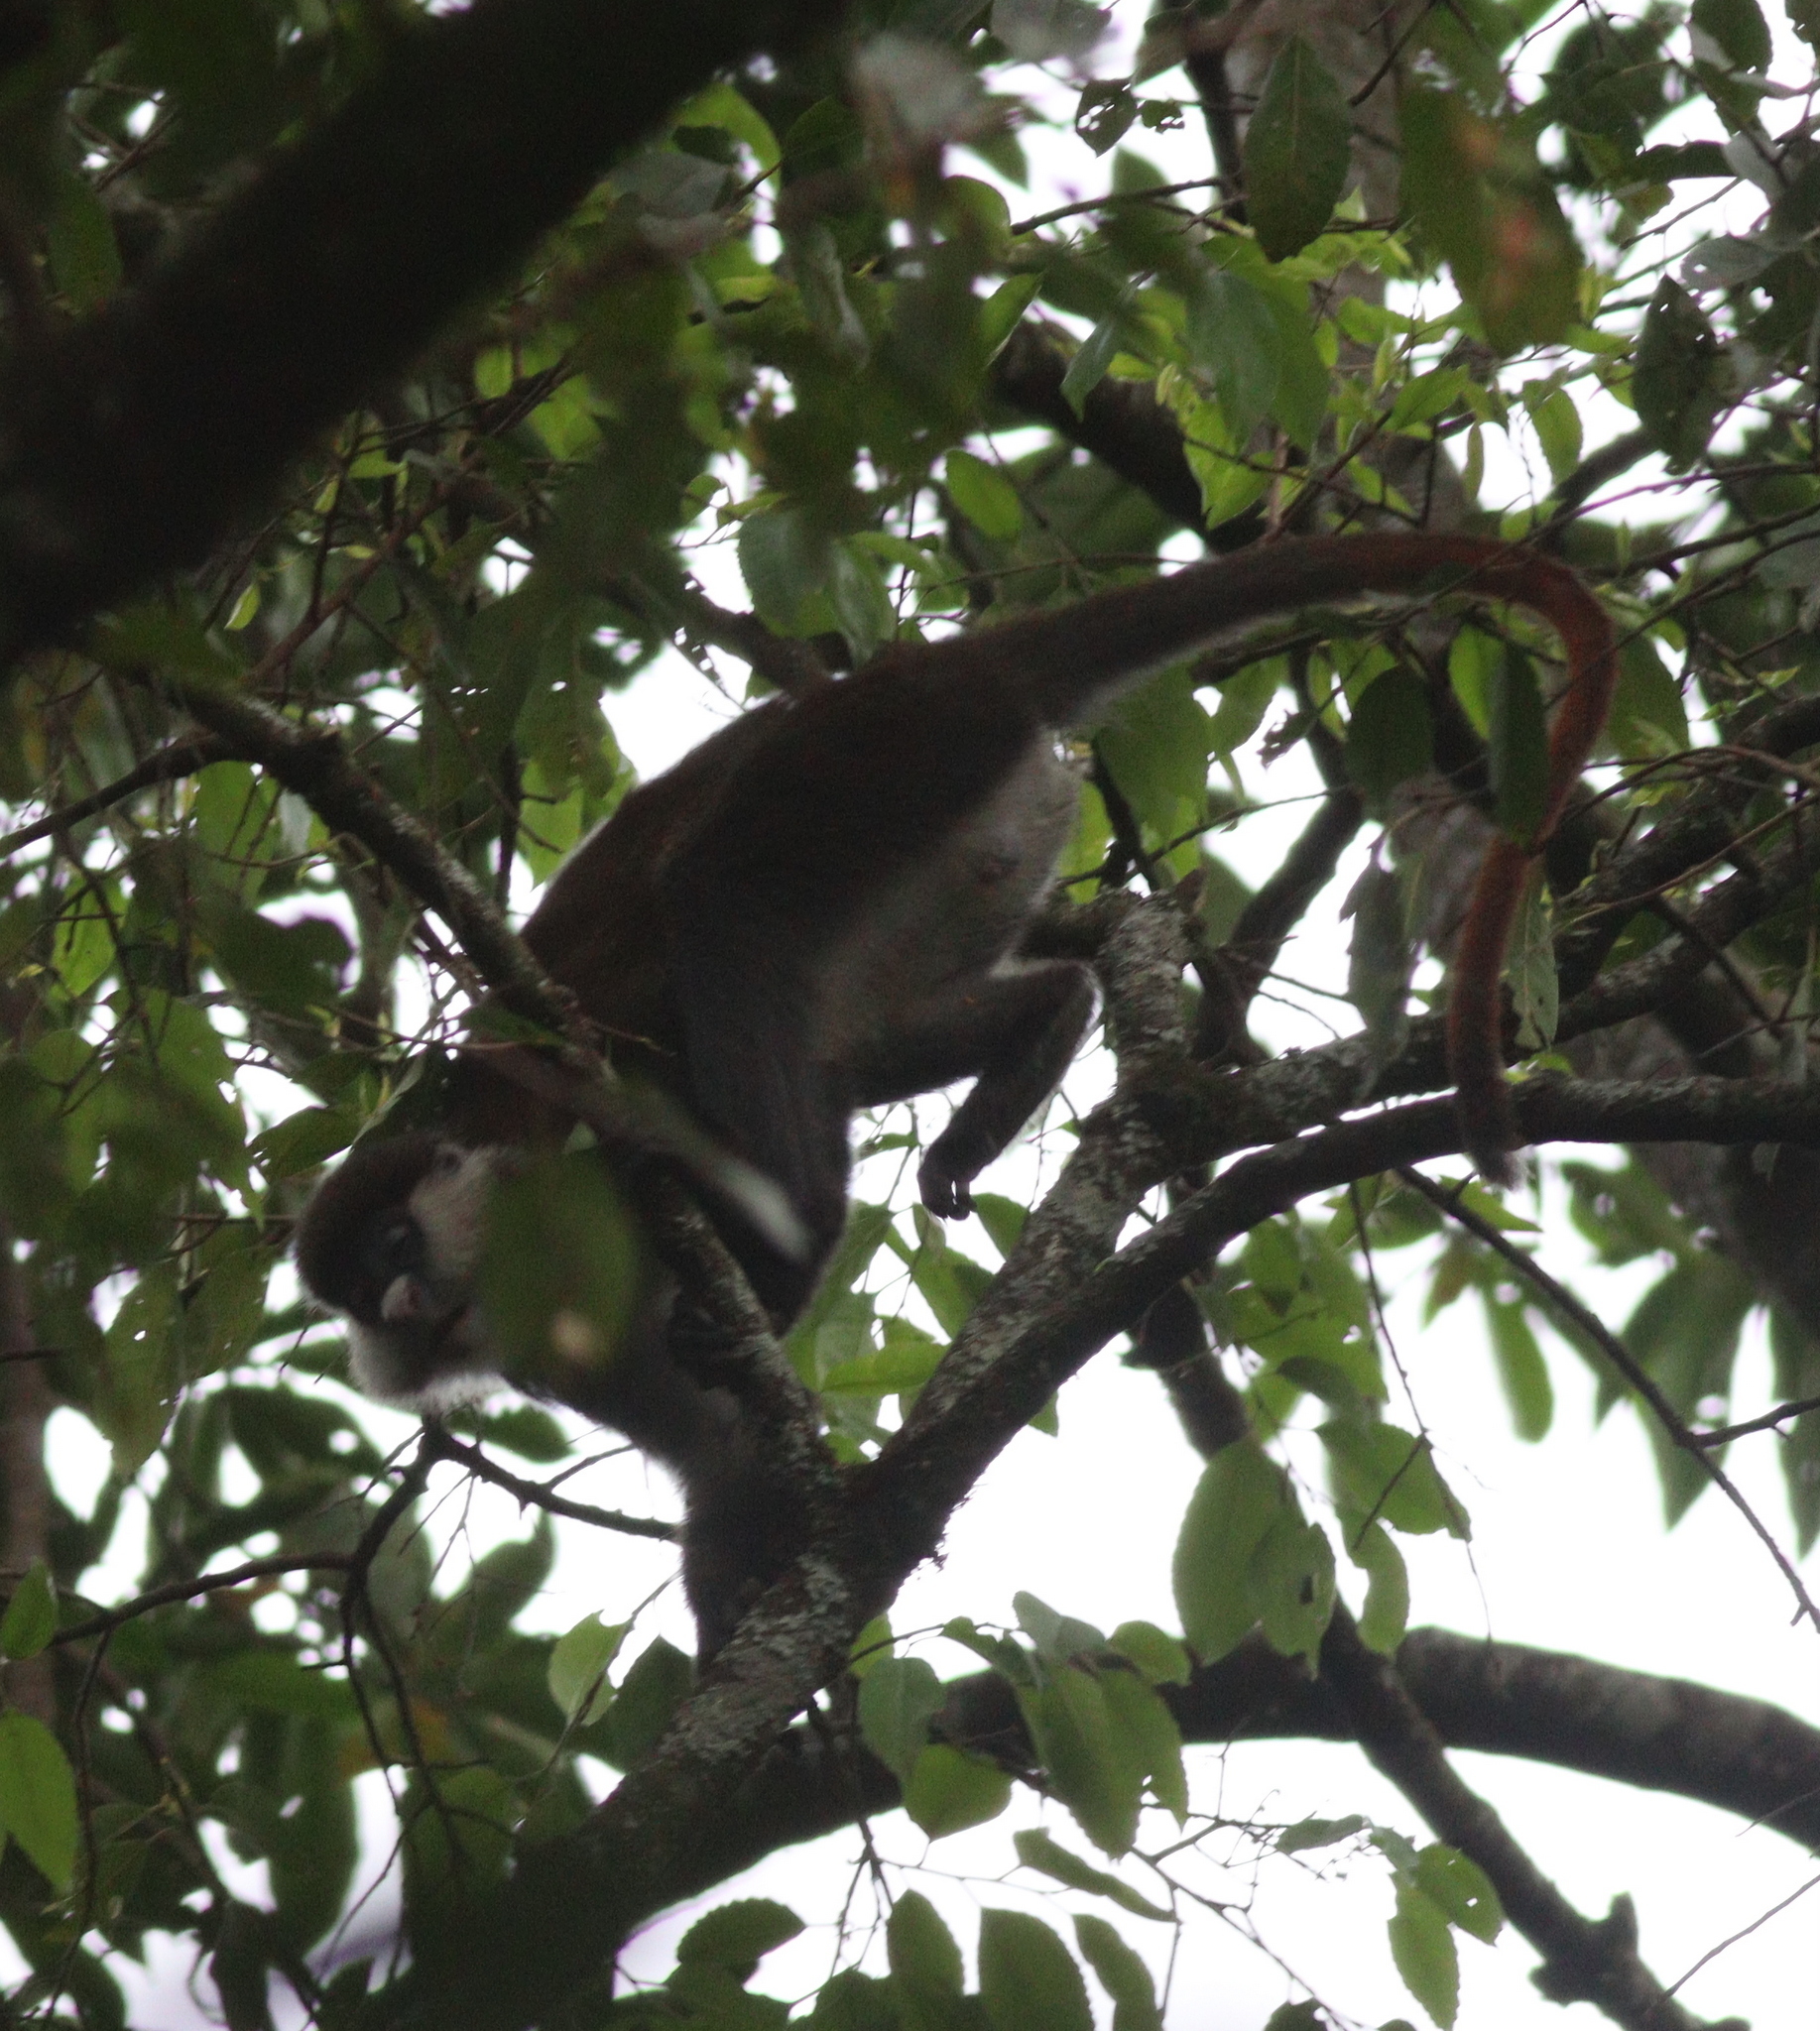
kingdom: Animalia
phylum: Chordata
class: Mammalia
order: Primates
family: Cercopithecidae
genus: Cercopithecus
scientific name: Cercopithecus ascanius
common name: Red-tailed monkey
